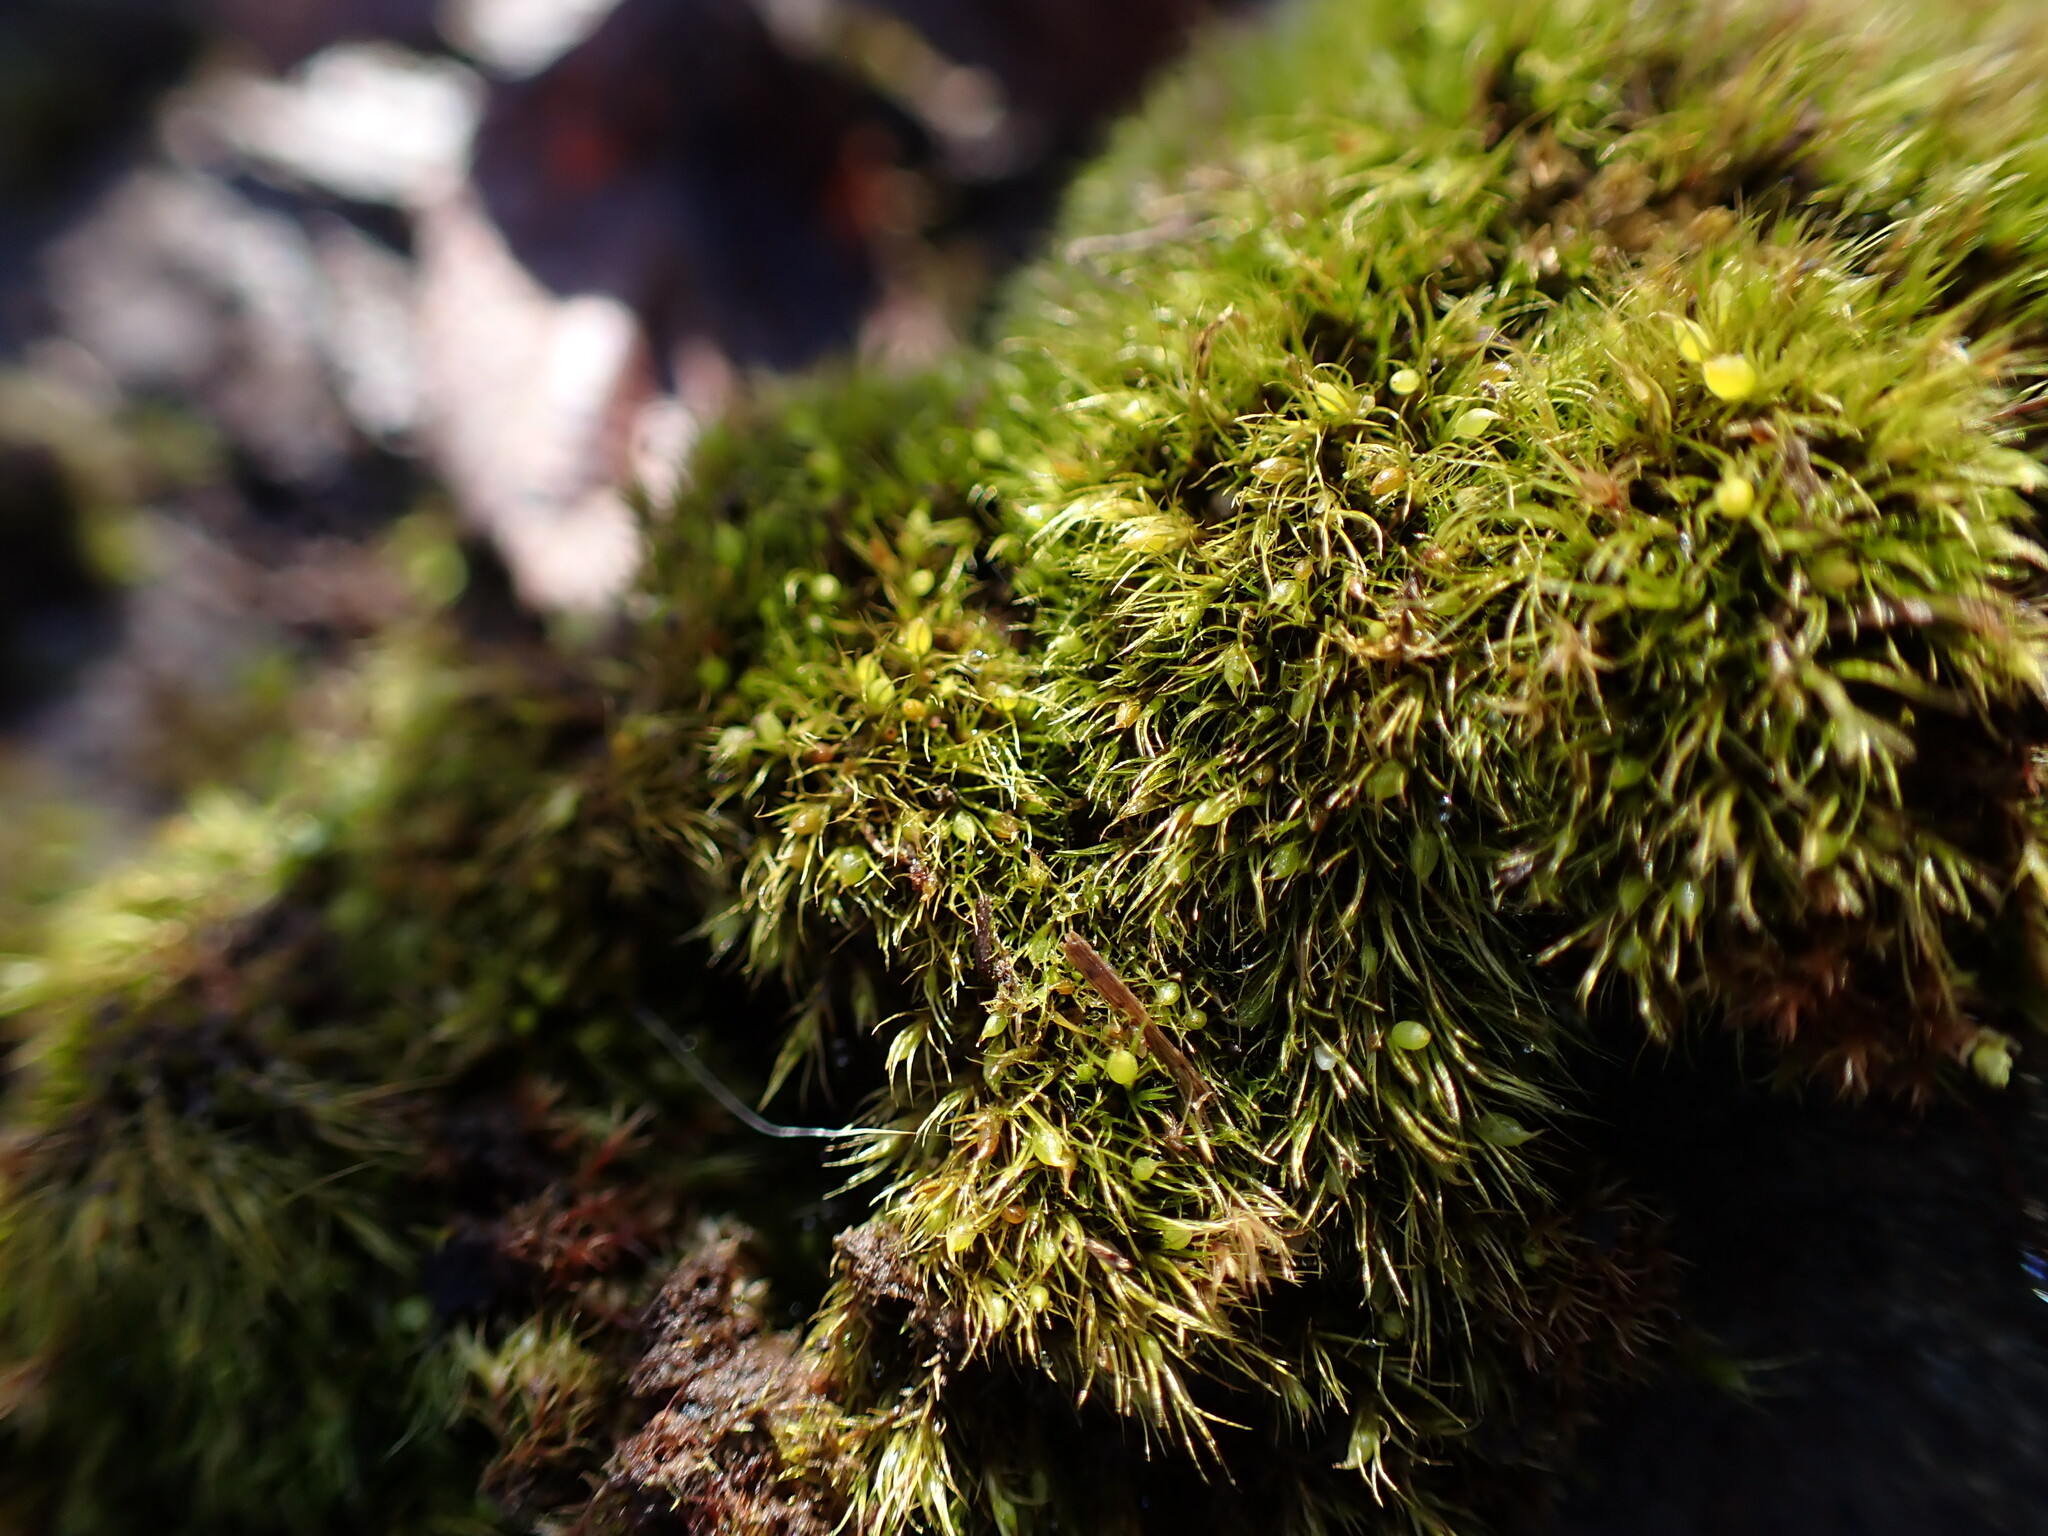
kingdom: Plantae
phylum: Bryophyta
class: Bryopsida
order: Dicranales
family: Ditrichaceae
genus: Pleuridium
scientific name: Pleuridium acuminatum
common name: Taper-leaved earth-moss
